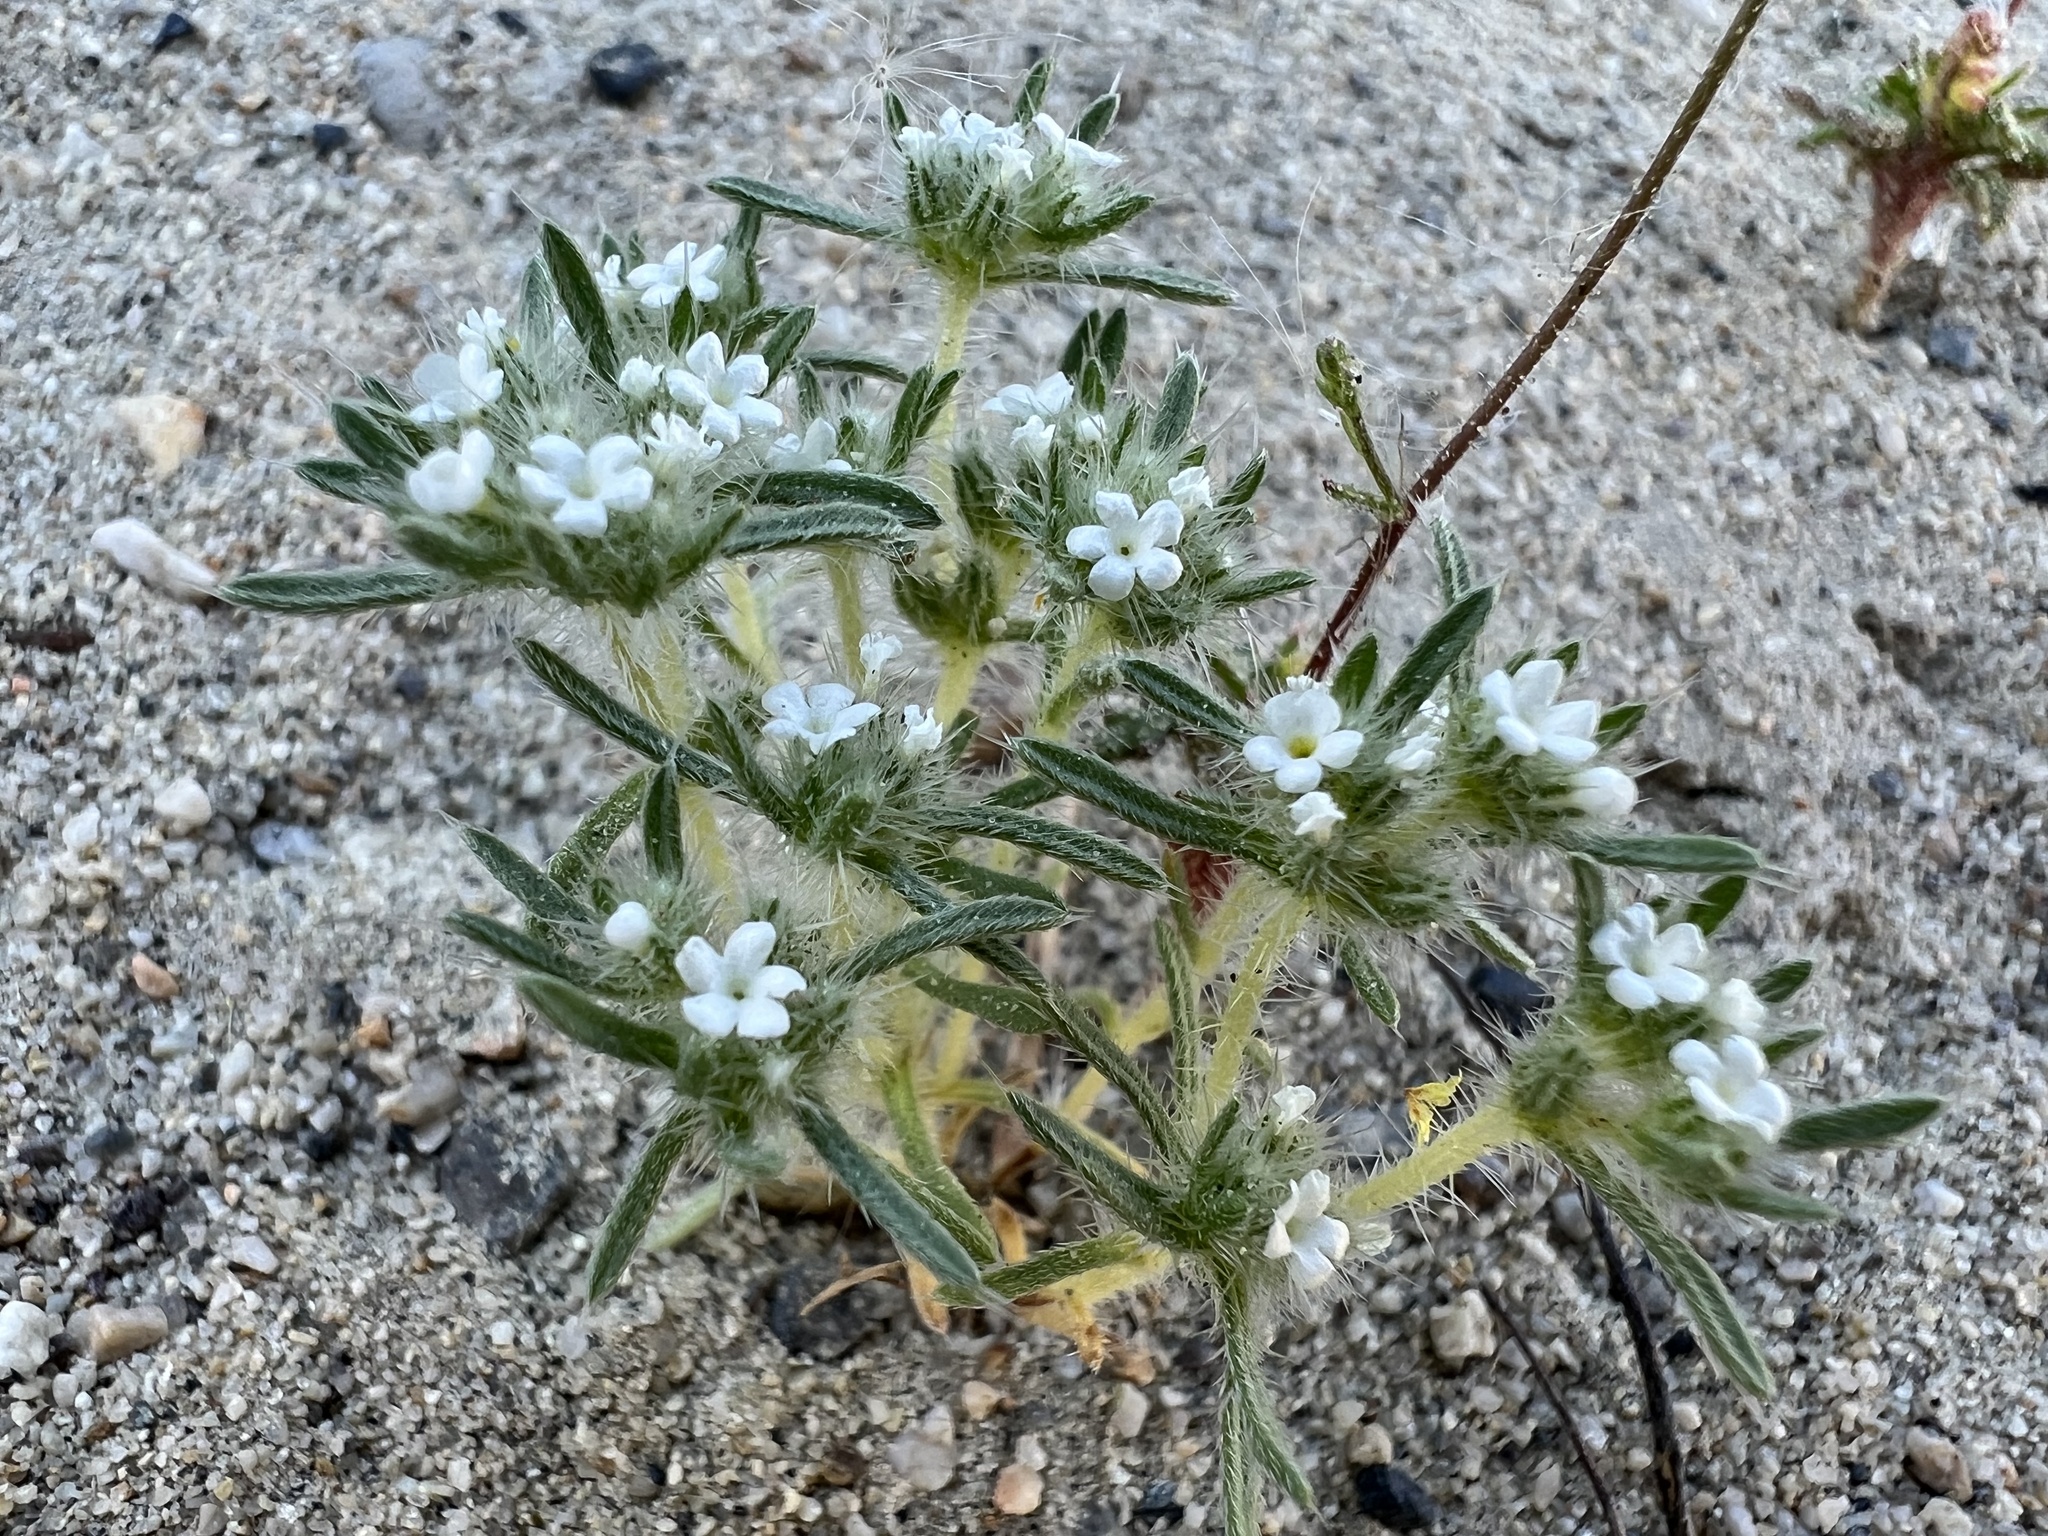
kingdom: Plantae
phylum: Tracheophyta
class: Magnoliopsida
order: Boraginales
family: Boraginaceae
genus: Greeneocharis
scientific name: Greeneocharis circumscissa
